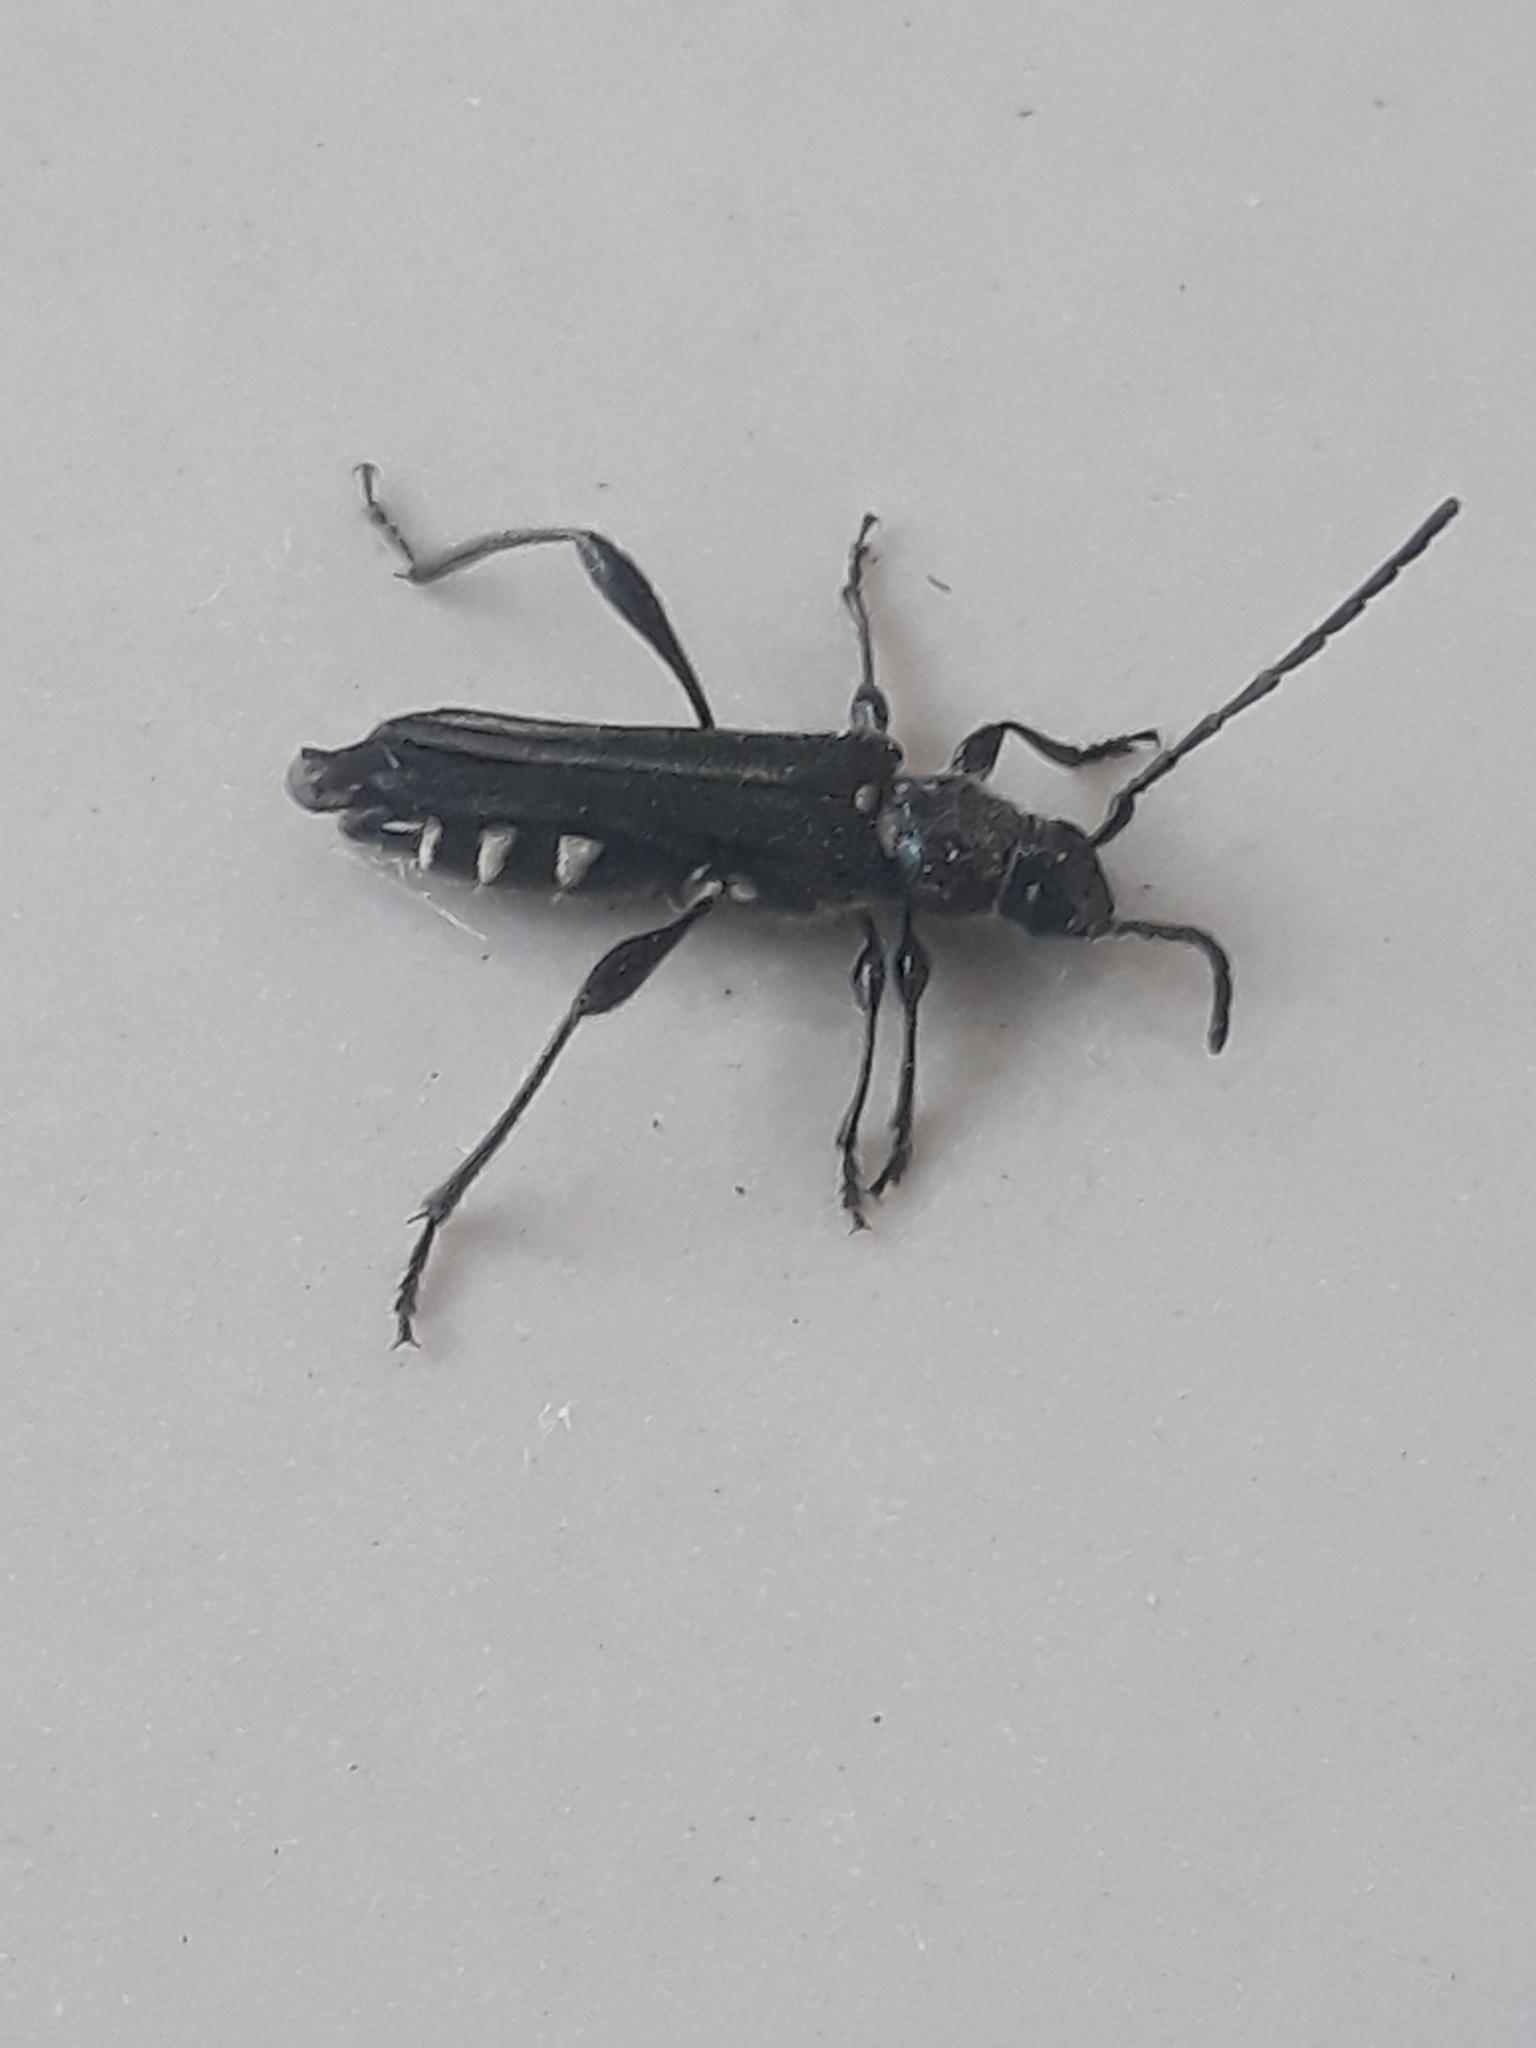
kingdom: Animalia
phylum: Arthropoda
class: Insecta
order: Coleoptera
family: Cerambycidae
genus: Stenopterus
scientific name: Stenopterus ater
